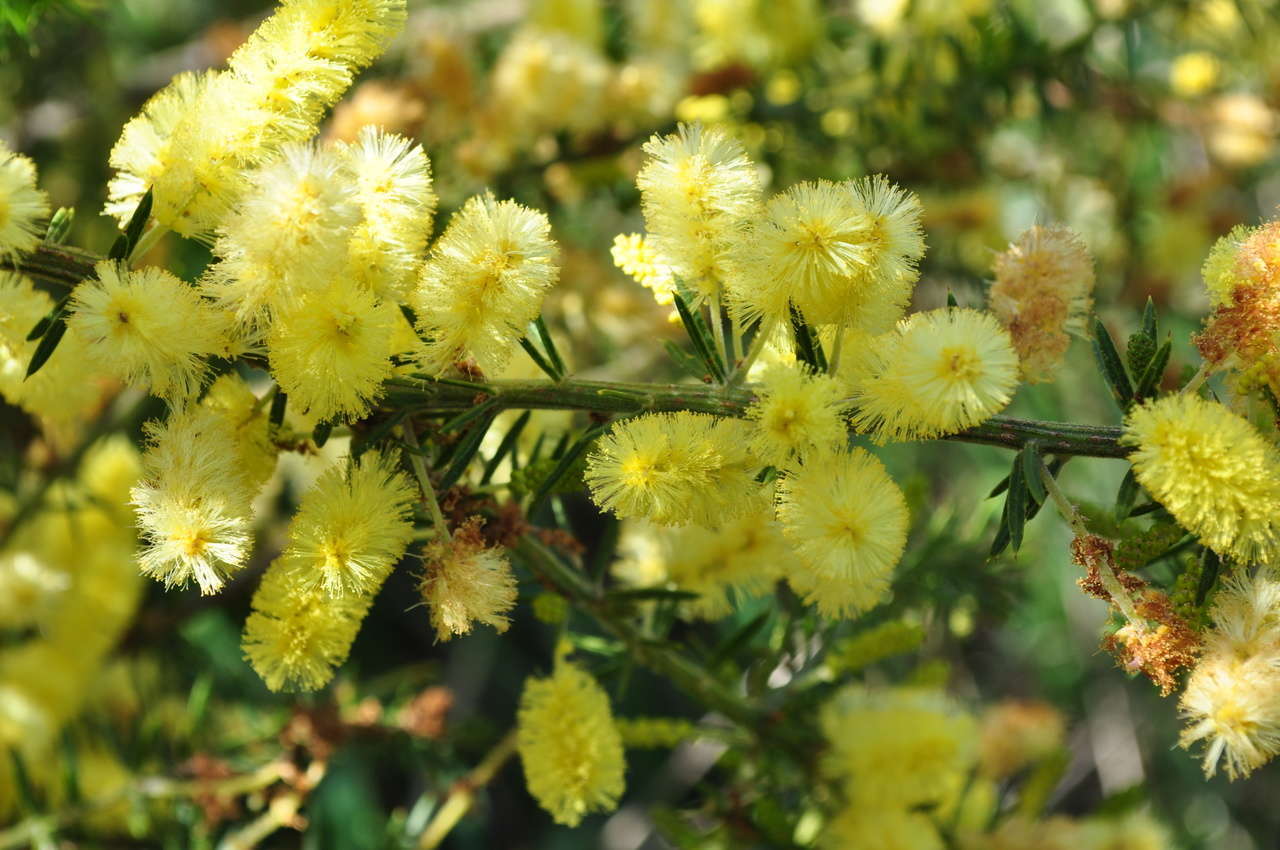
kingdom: Plantae
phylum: Tracheophyta
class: Magnoliopsida
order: Fabales
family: Fabaceae
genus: Acacia
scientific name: Acacia verticillata
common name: Prickly moses
